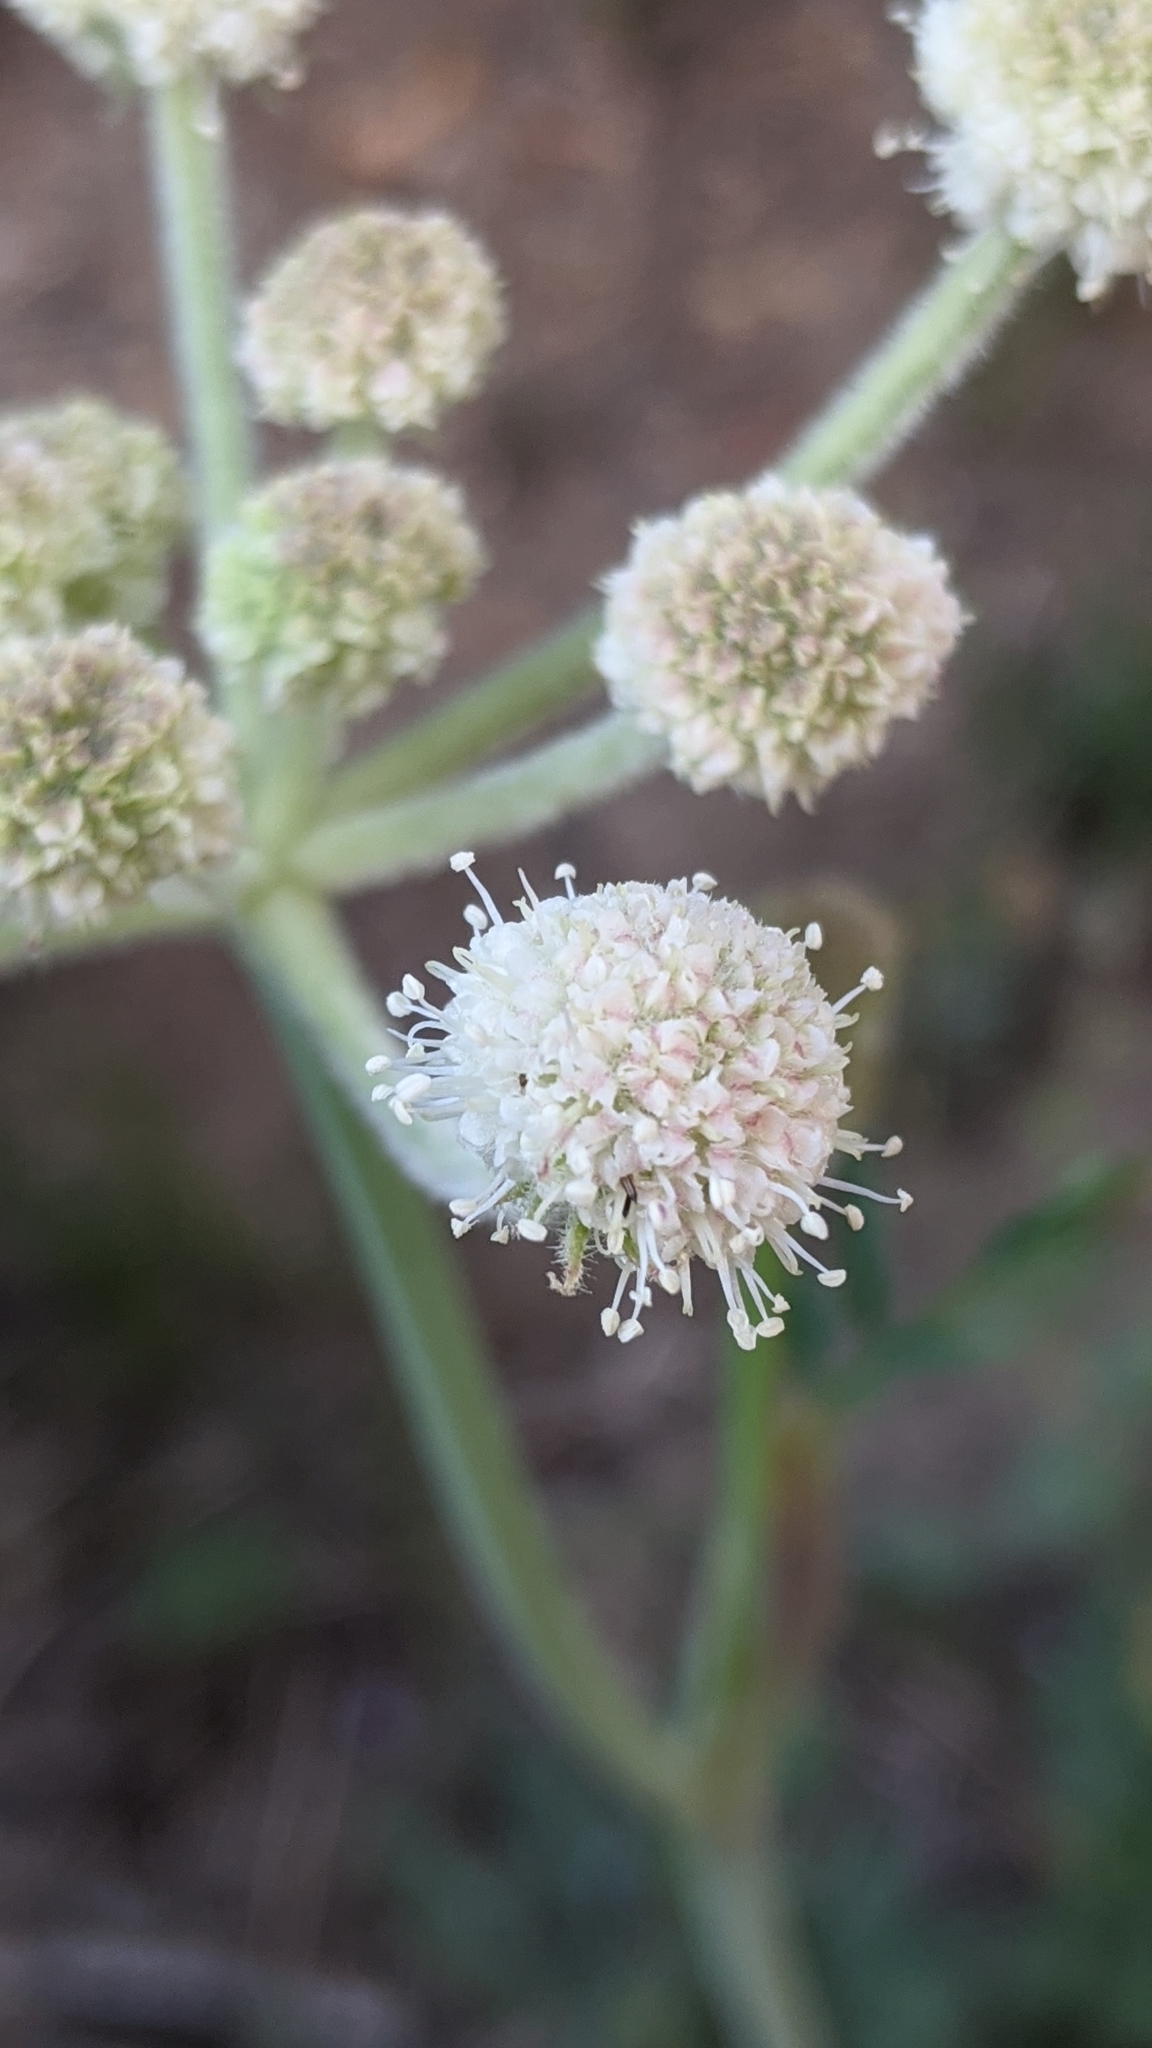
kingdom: Plantae
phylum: Tracheophyta
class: Magnoliopsida
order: Apiales
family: Apiaceae
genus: Angelica
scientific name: Angelica capitellata
